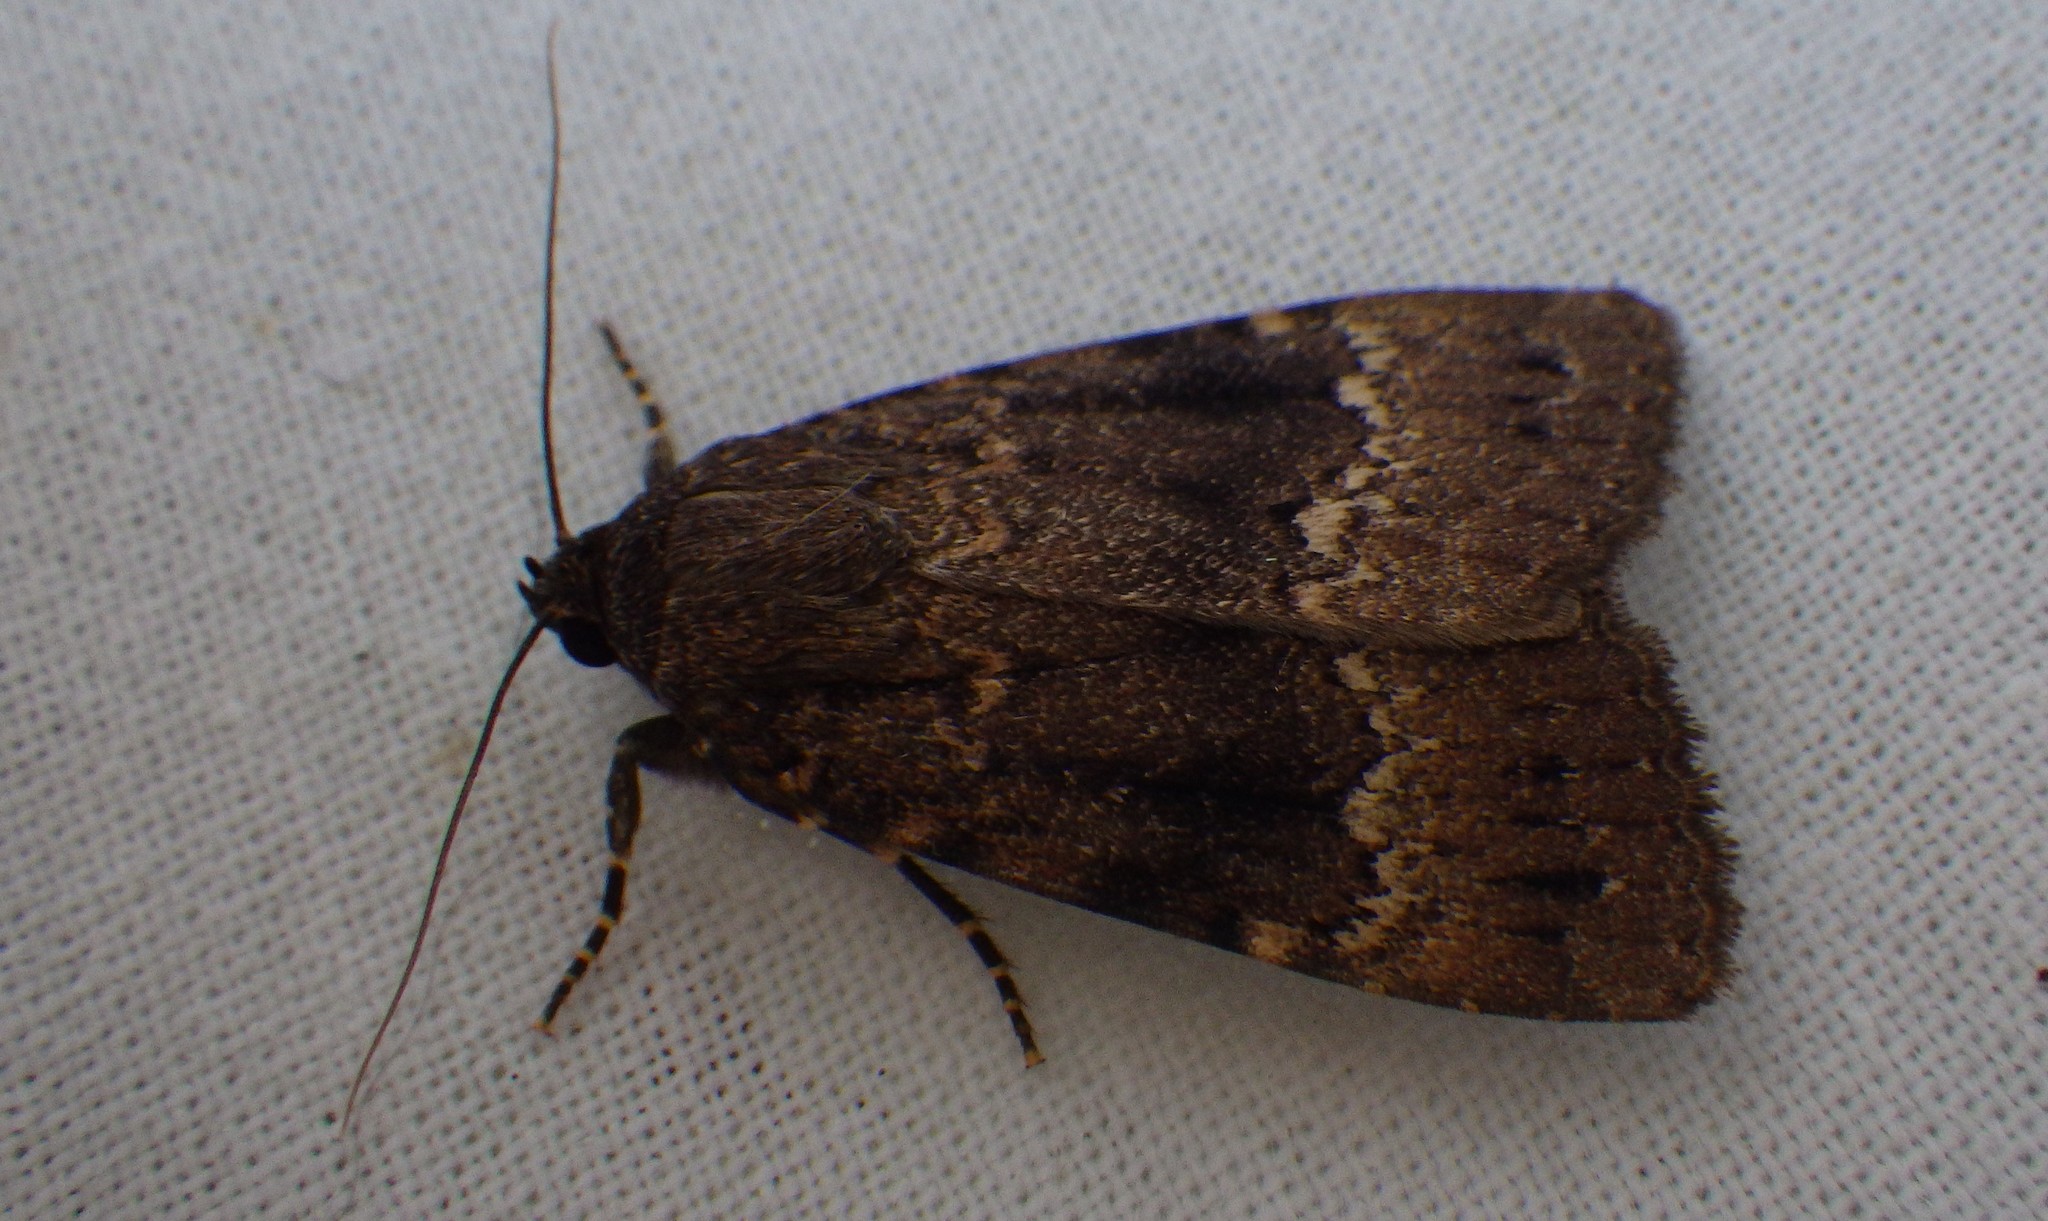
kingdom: Animalia
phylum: Arthropoda
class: Insecta
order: Lepidoptera
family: Noctuidae
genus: Amphipyra
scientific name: Amphipyra pyramidea
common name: Copper underwing
